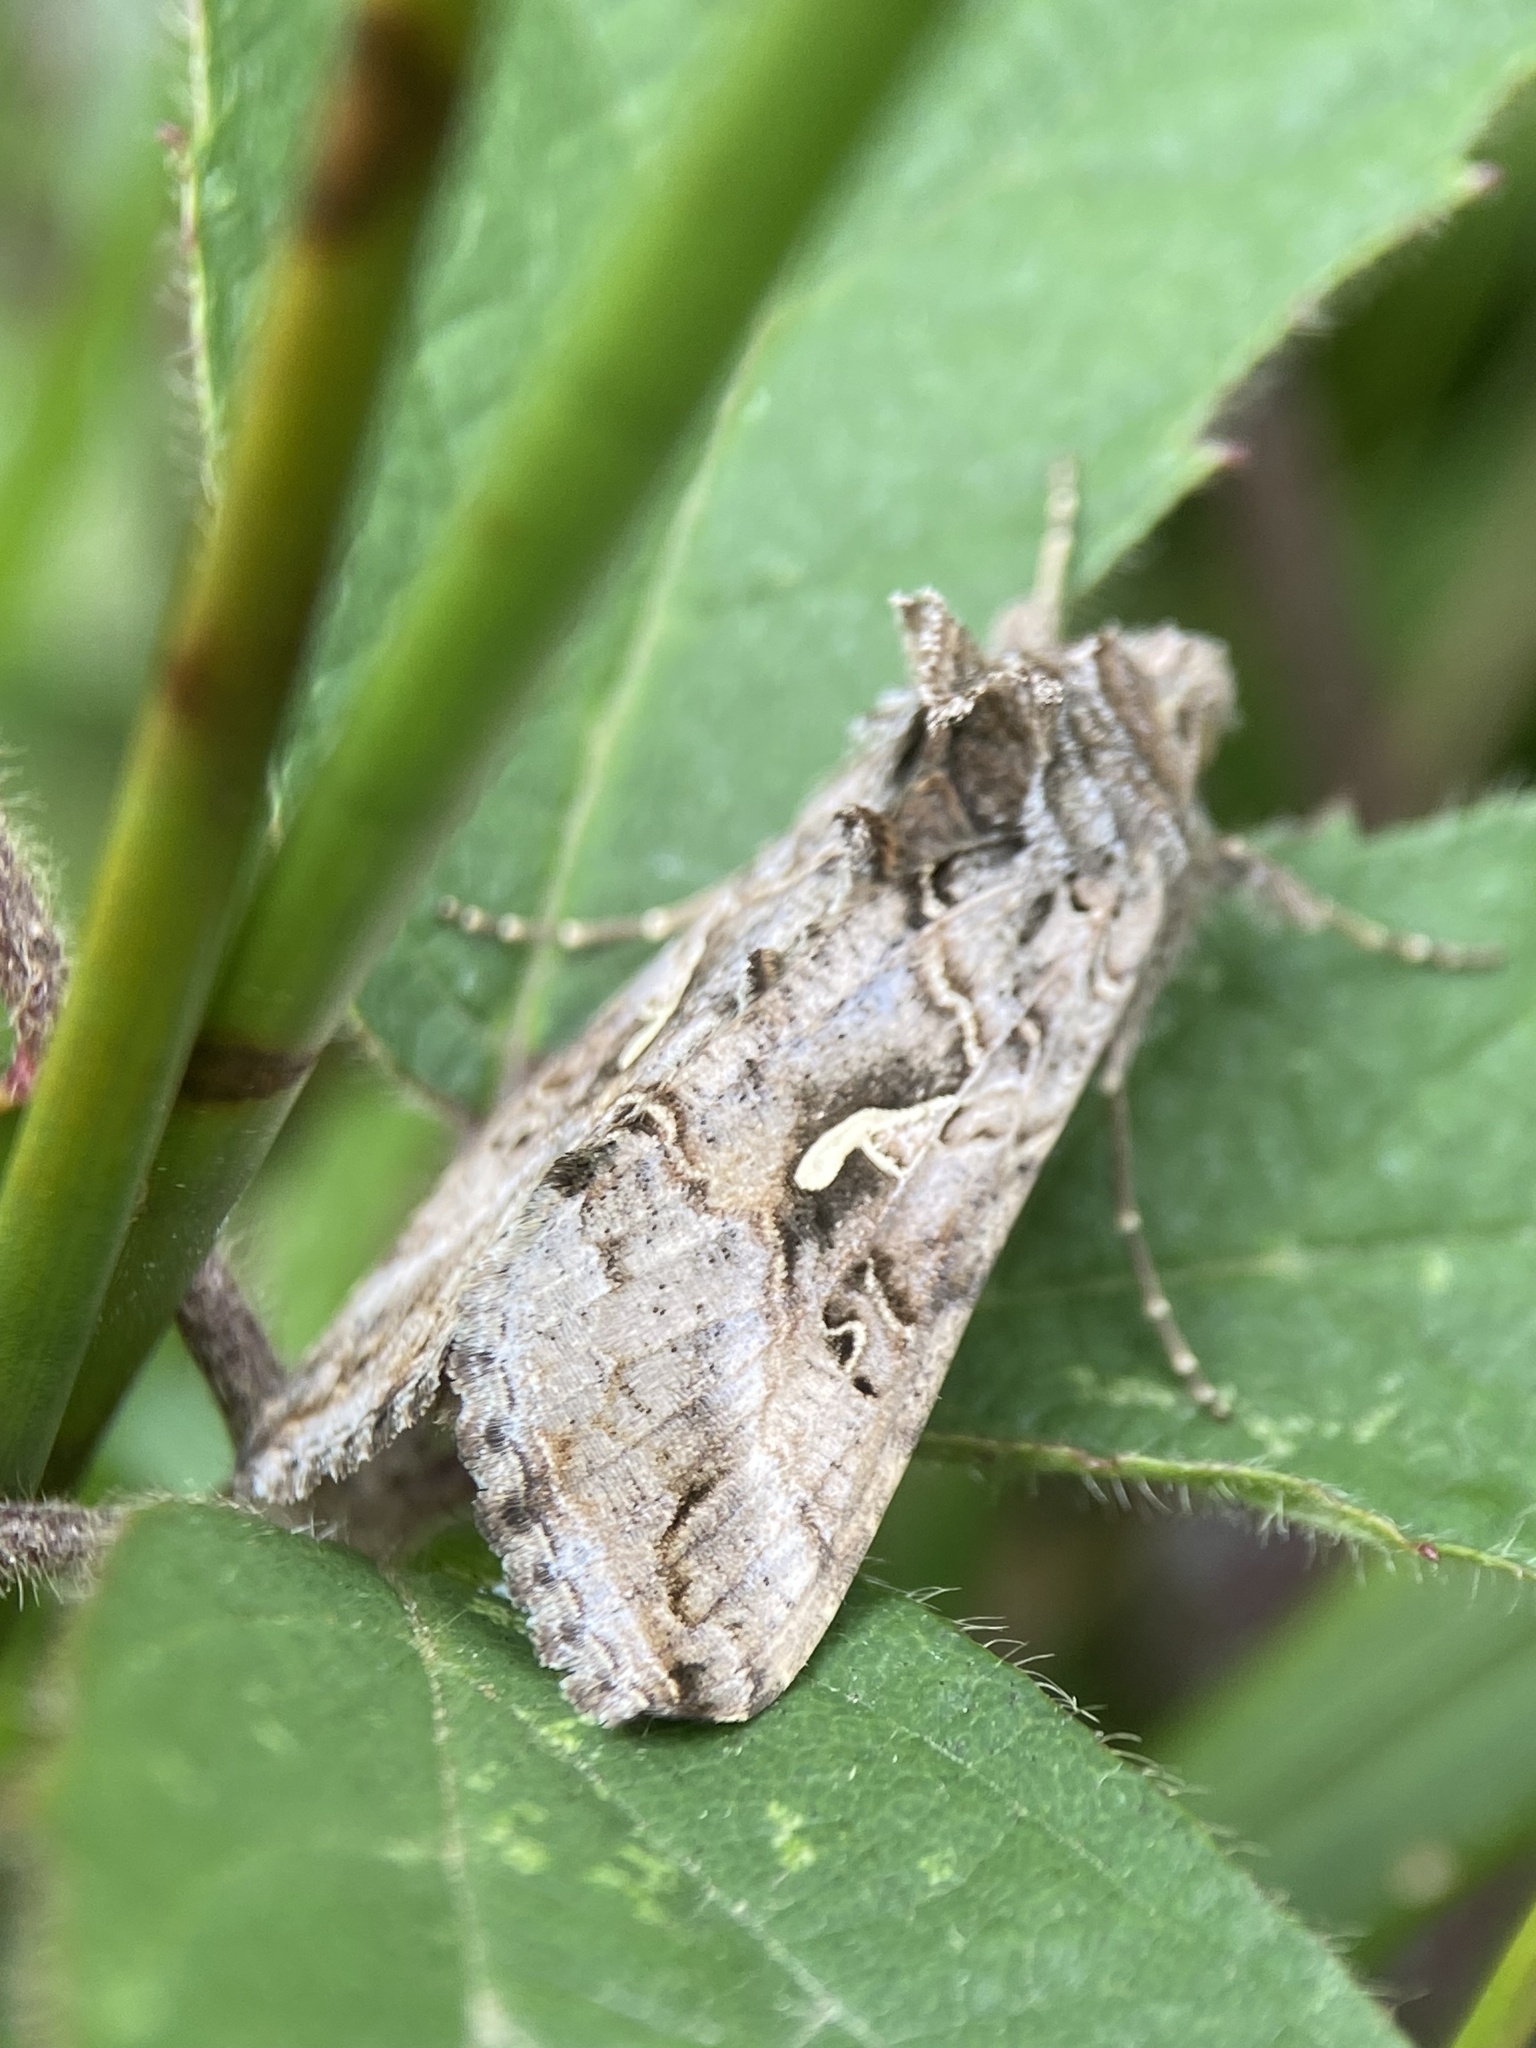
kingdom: Animalia
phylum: Arthropoda
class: Insecta
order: Lepidoptera
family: Noctuidae
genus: Autographa
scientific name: Autographa gamma
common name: Silver y
